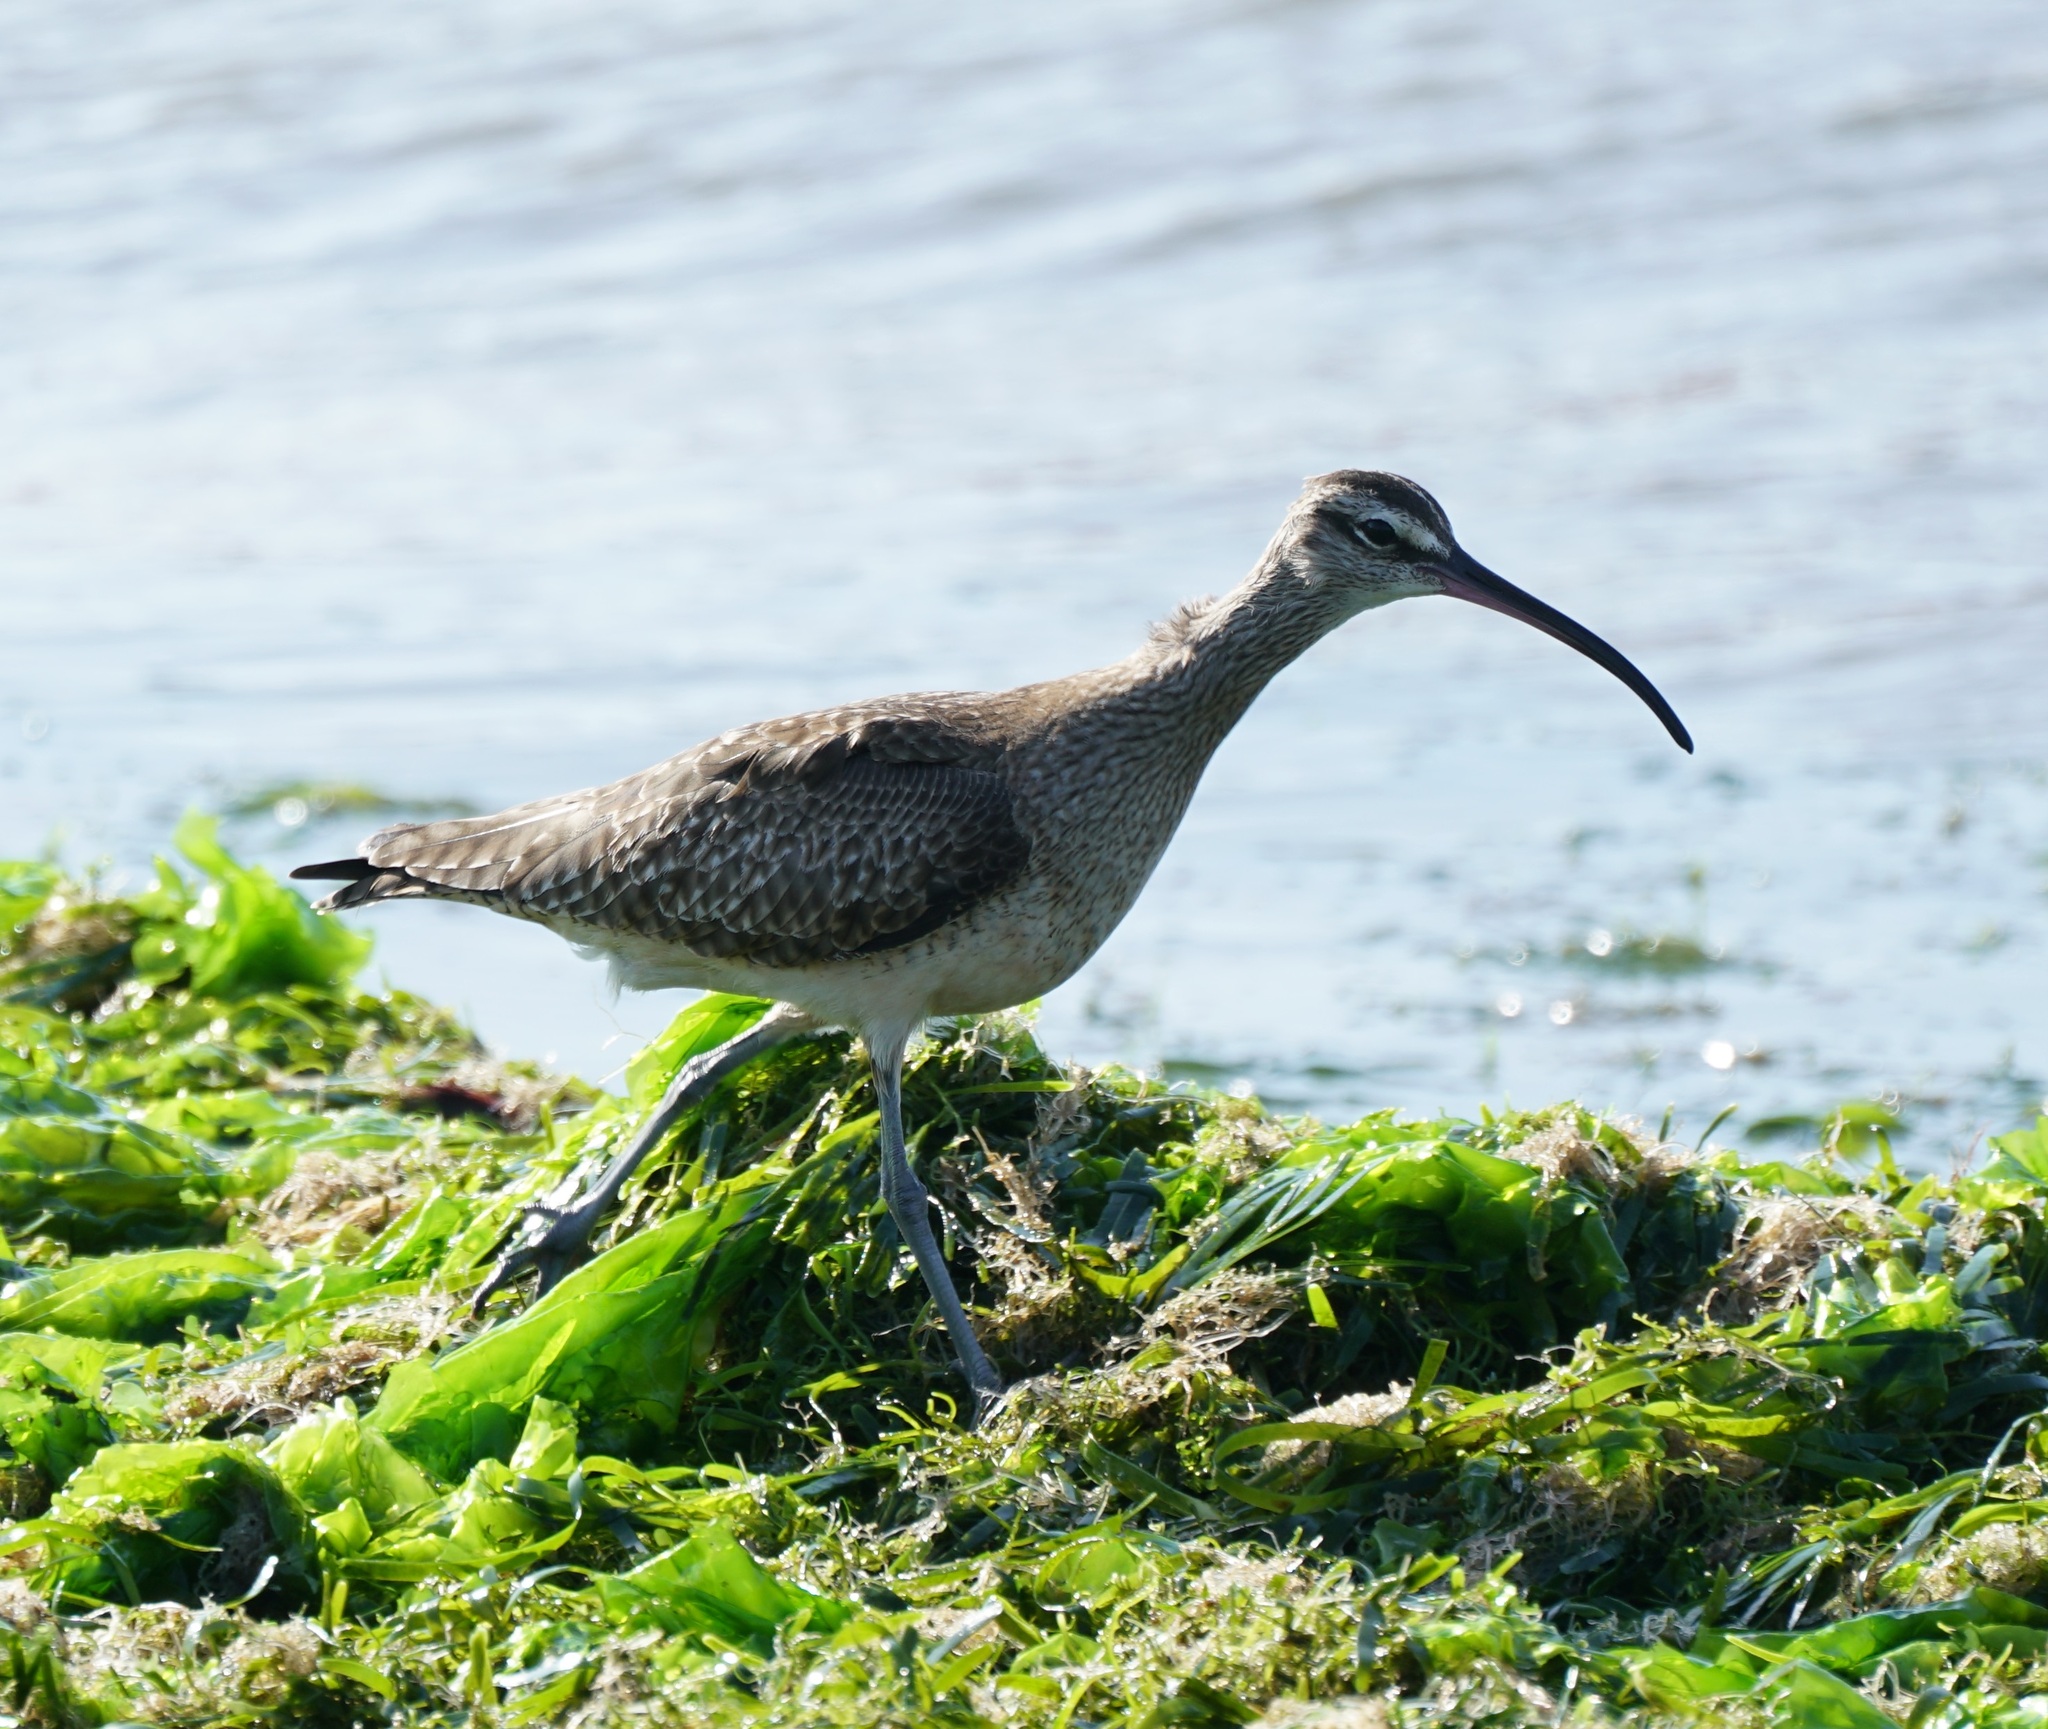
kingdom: Animalia
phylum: Chordata
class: Aves
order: Charadriiformes
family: Scolopacidae
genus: Numenius
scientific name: Numenius phaeopus
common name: Whimbrel
